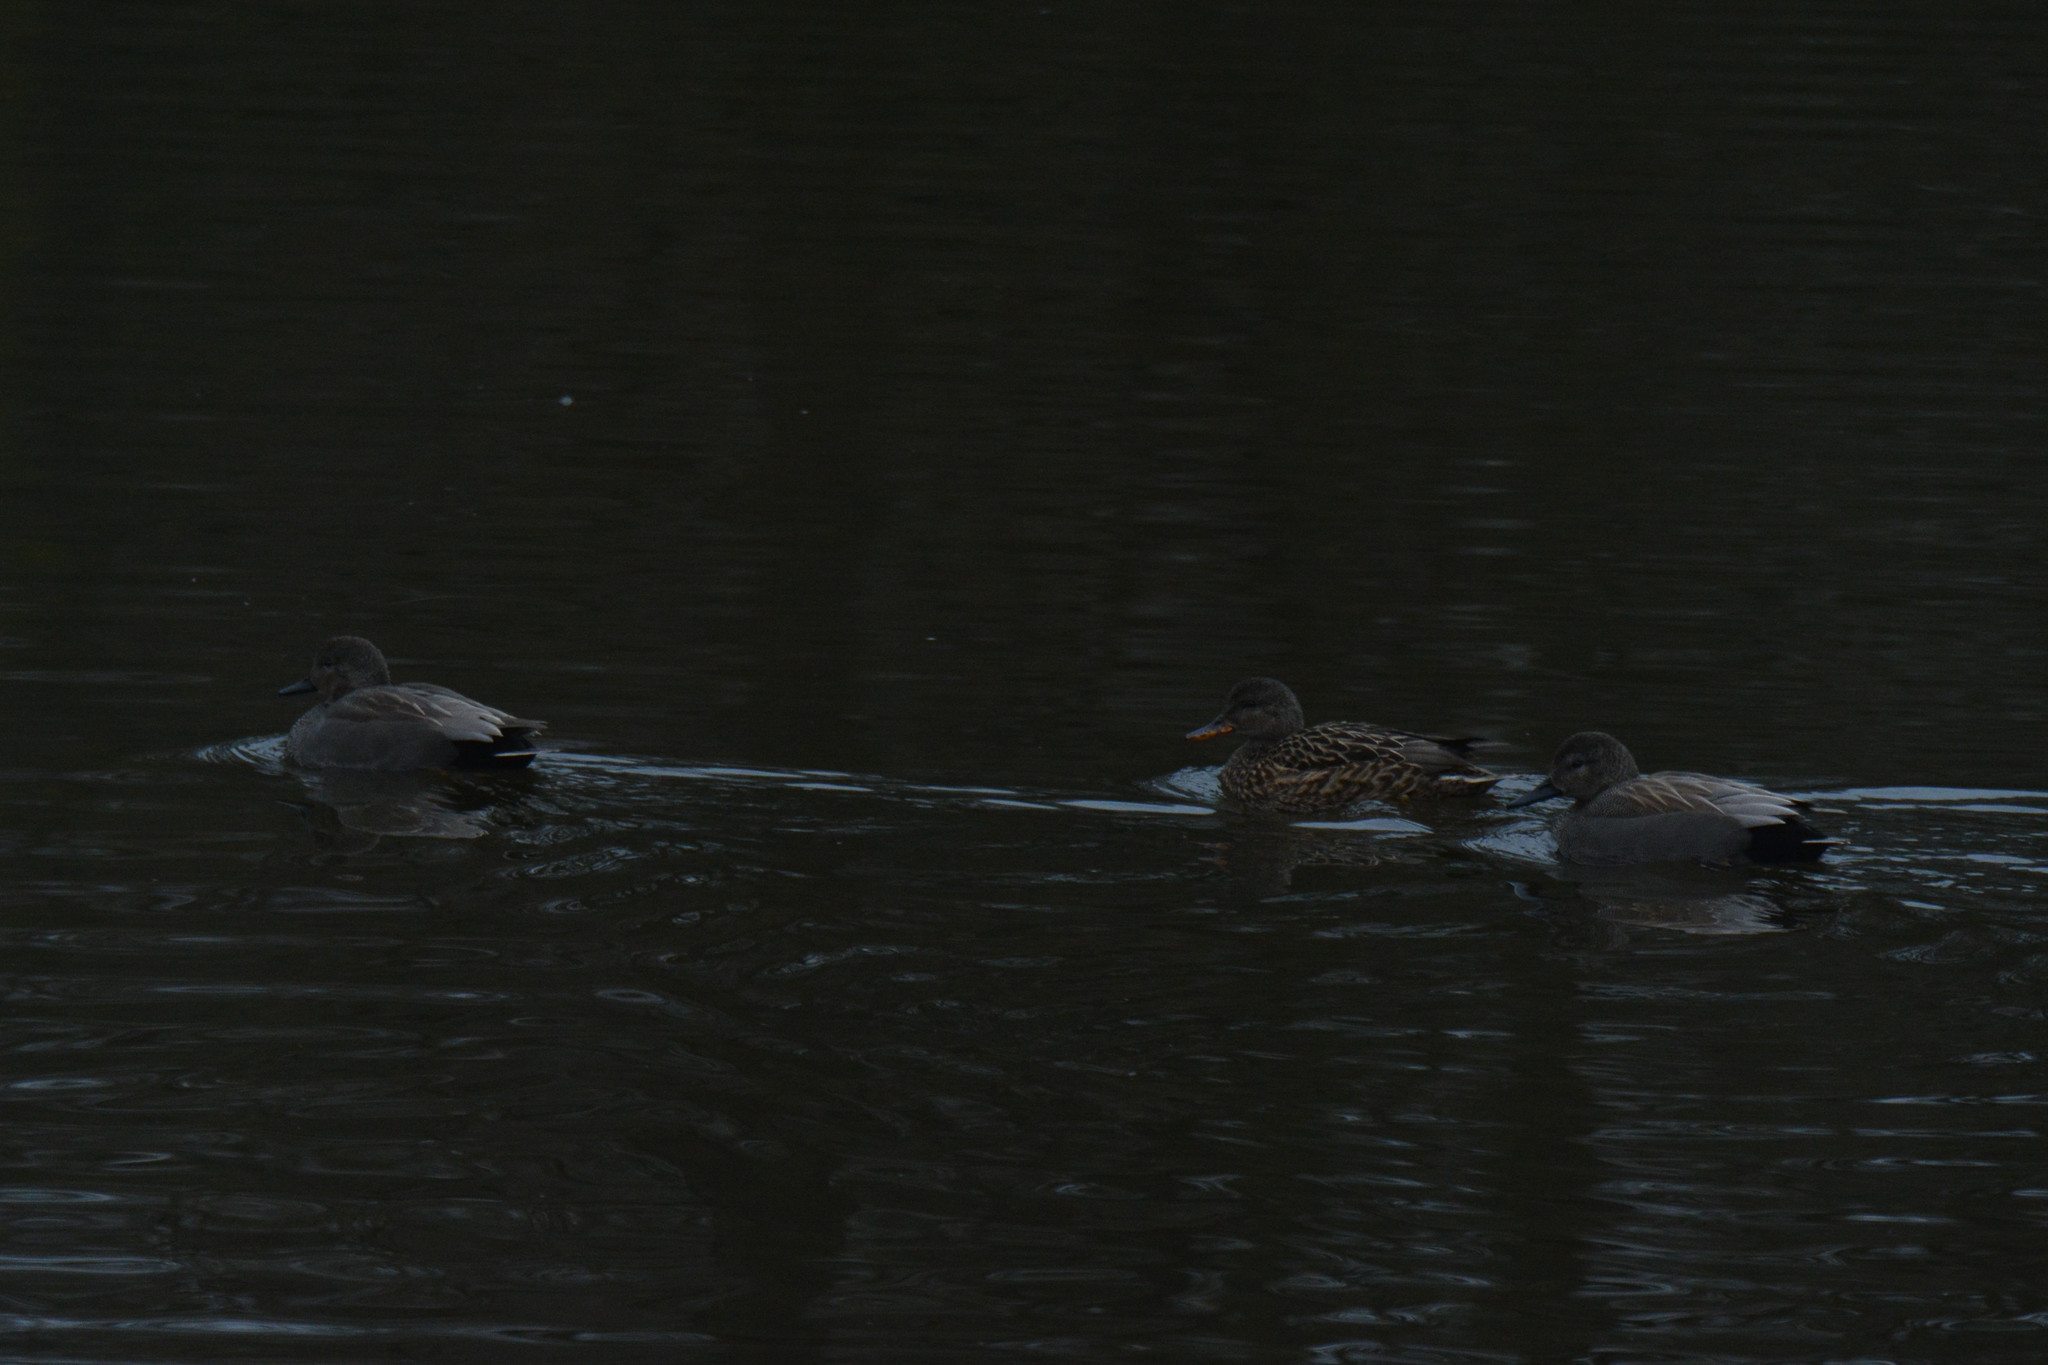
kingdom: Animalia
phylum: Chordata
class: Aves
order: Anseriformes
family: Anatidae
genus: Mareca
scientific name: Mareca strepera
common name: Gadwall
